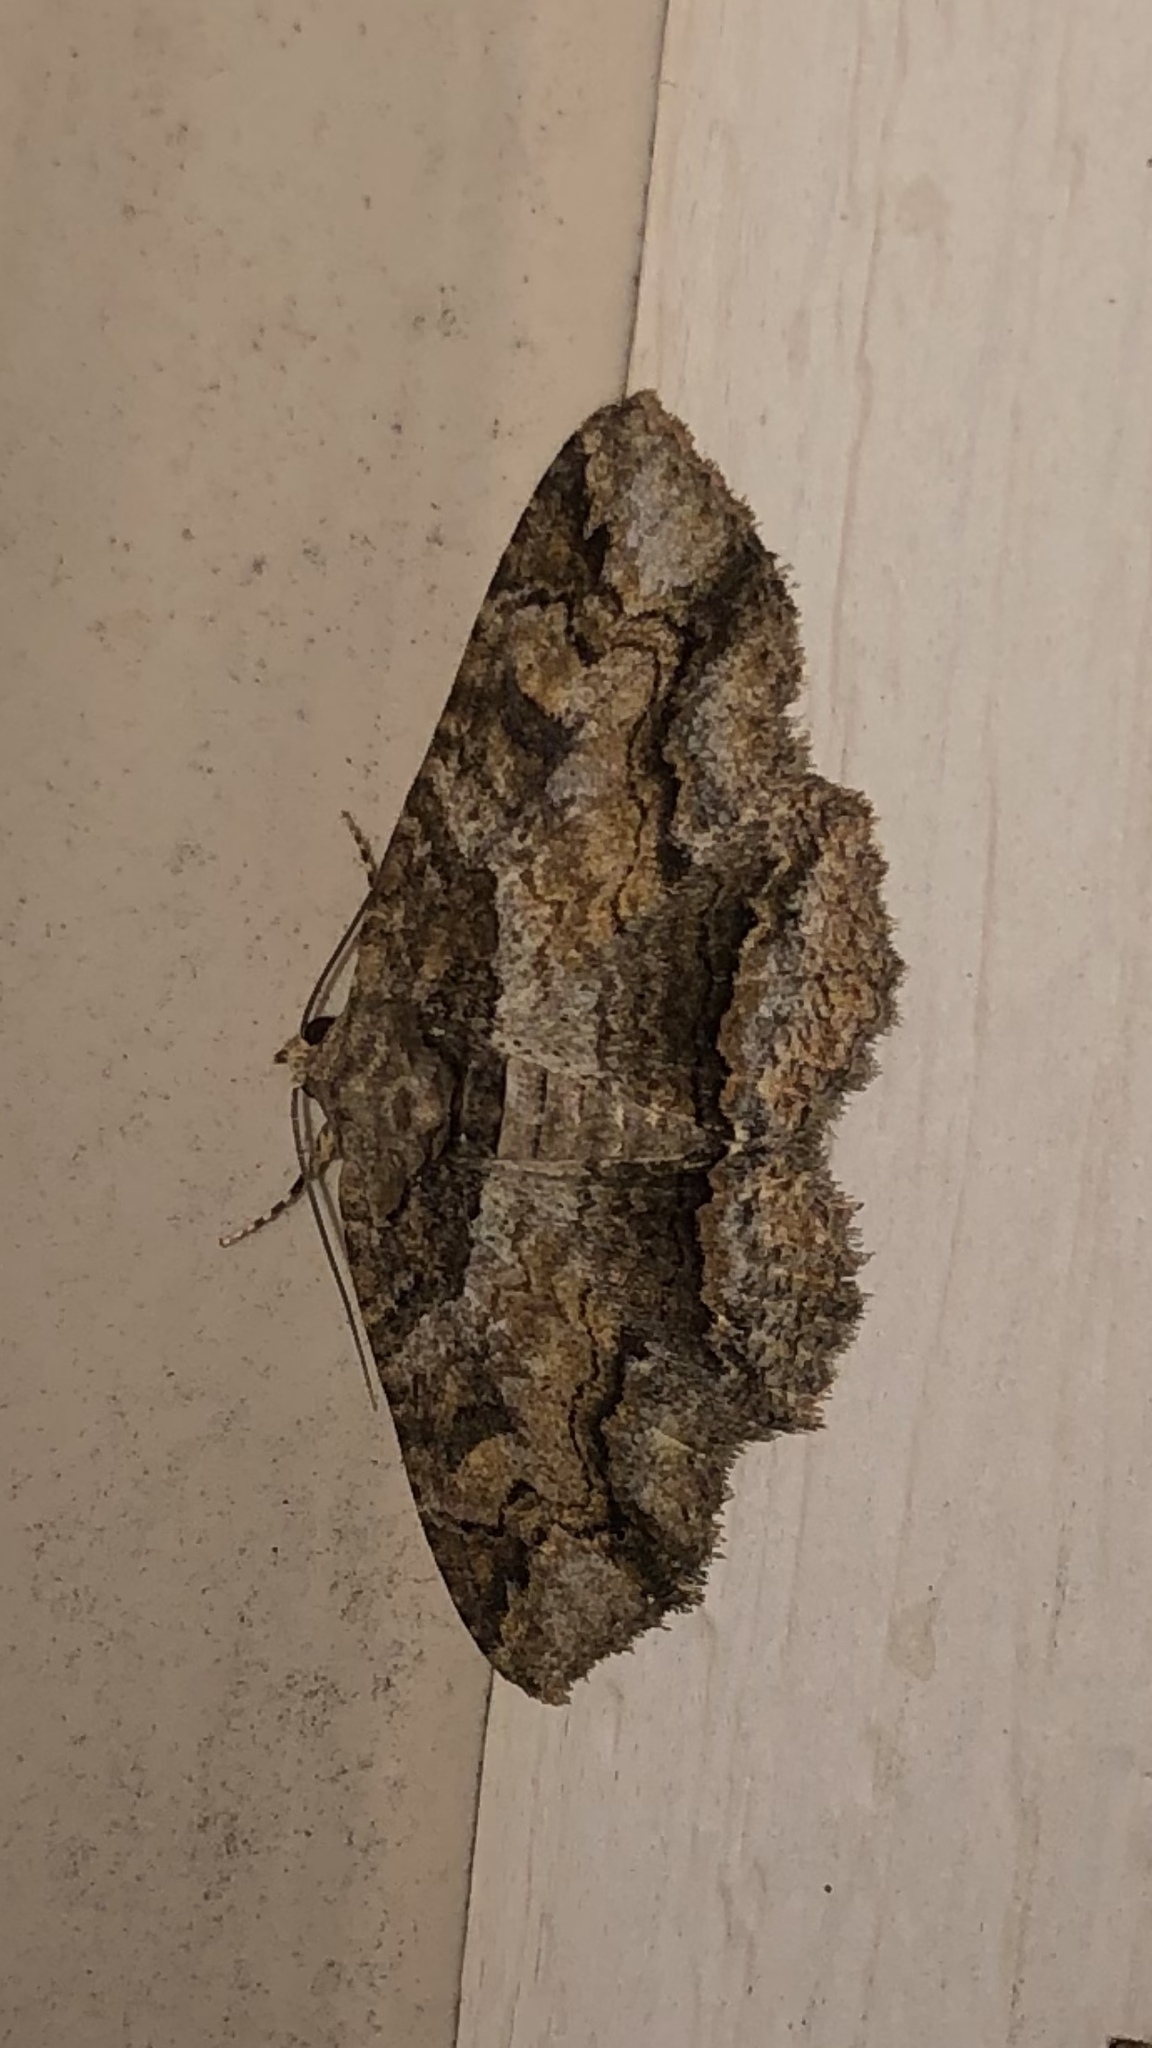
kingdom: Animalia
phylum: Arthropoda
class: Insecta
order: Lepidoptera
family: Erebidae
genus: Zale
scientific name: Zale galbanata
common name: Maple zale
